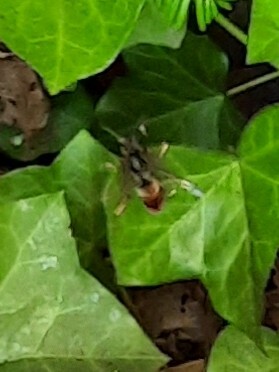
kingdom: Animalia
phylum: Arthropoda
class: Insecta
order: Hymenoptera
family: Vespidae
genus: Vespa
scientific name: Vespa velutina
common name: Asian hornet
